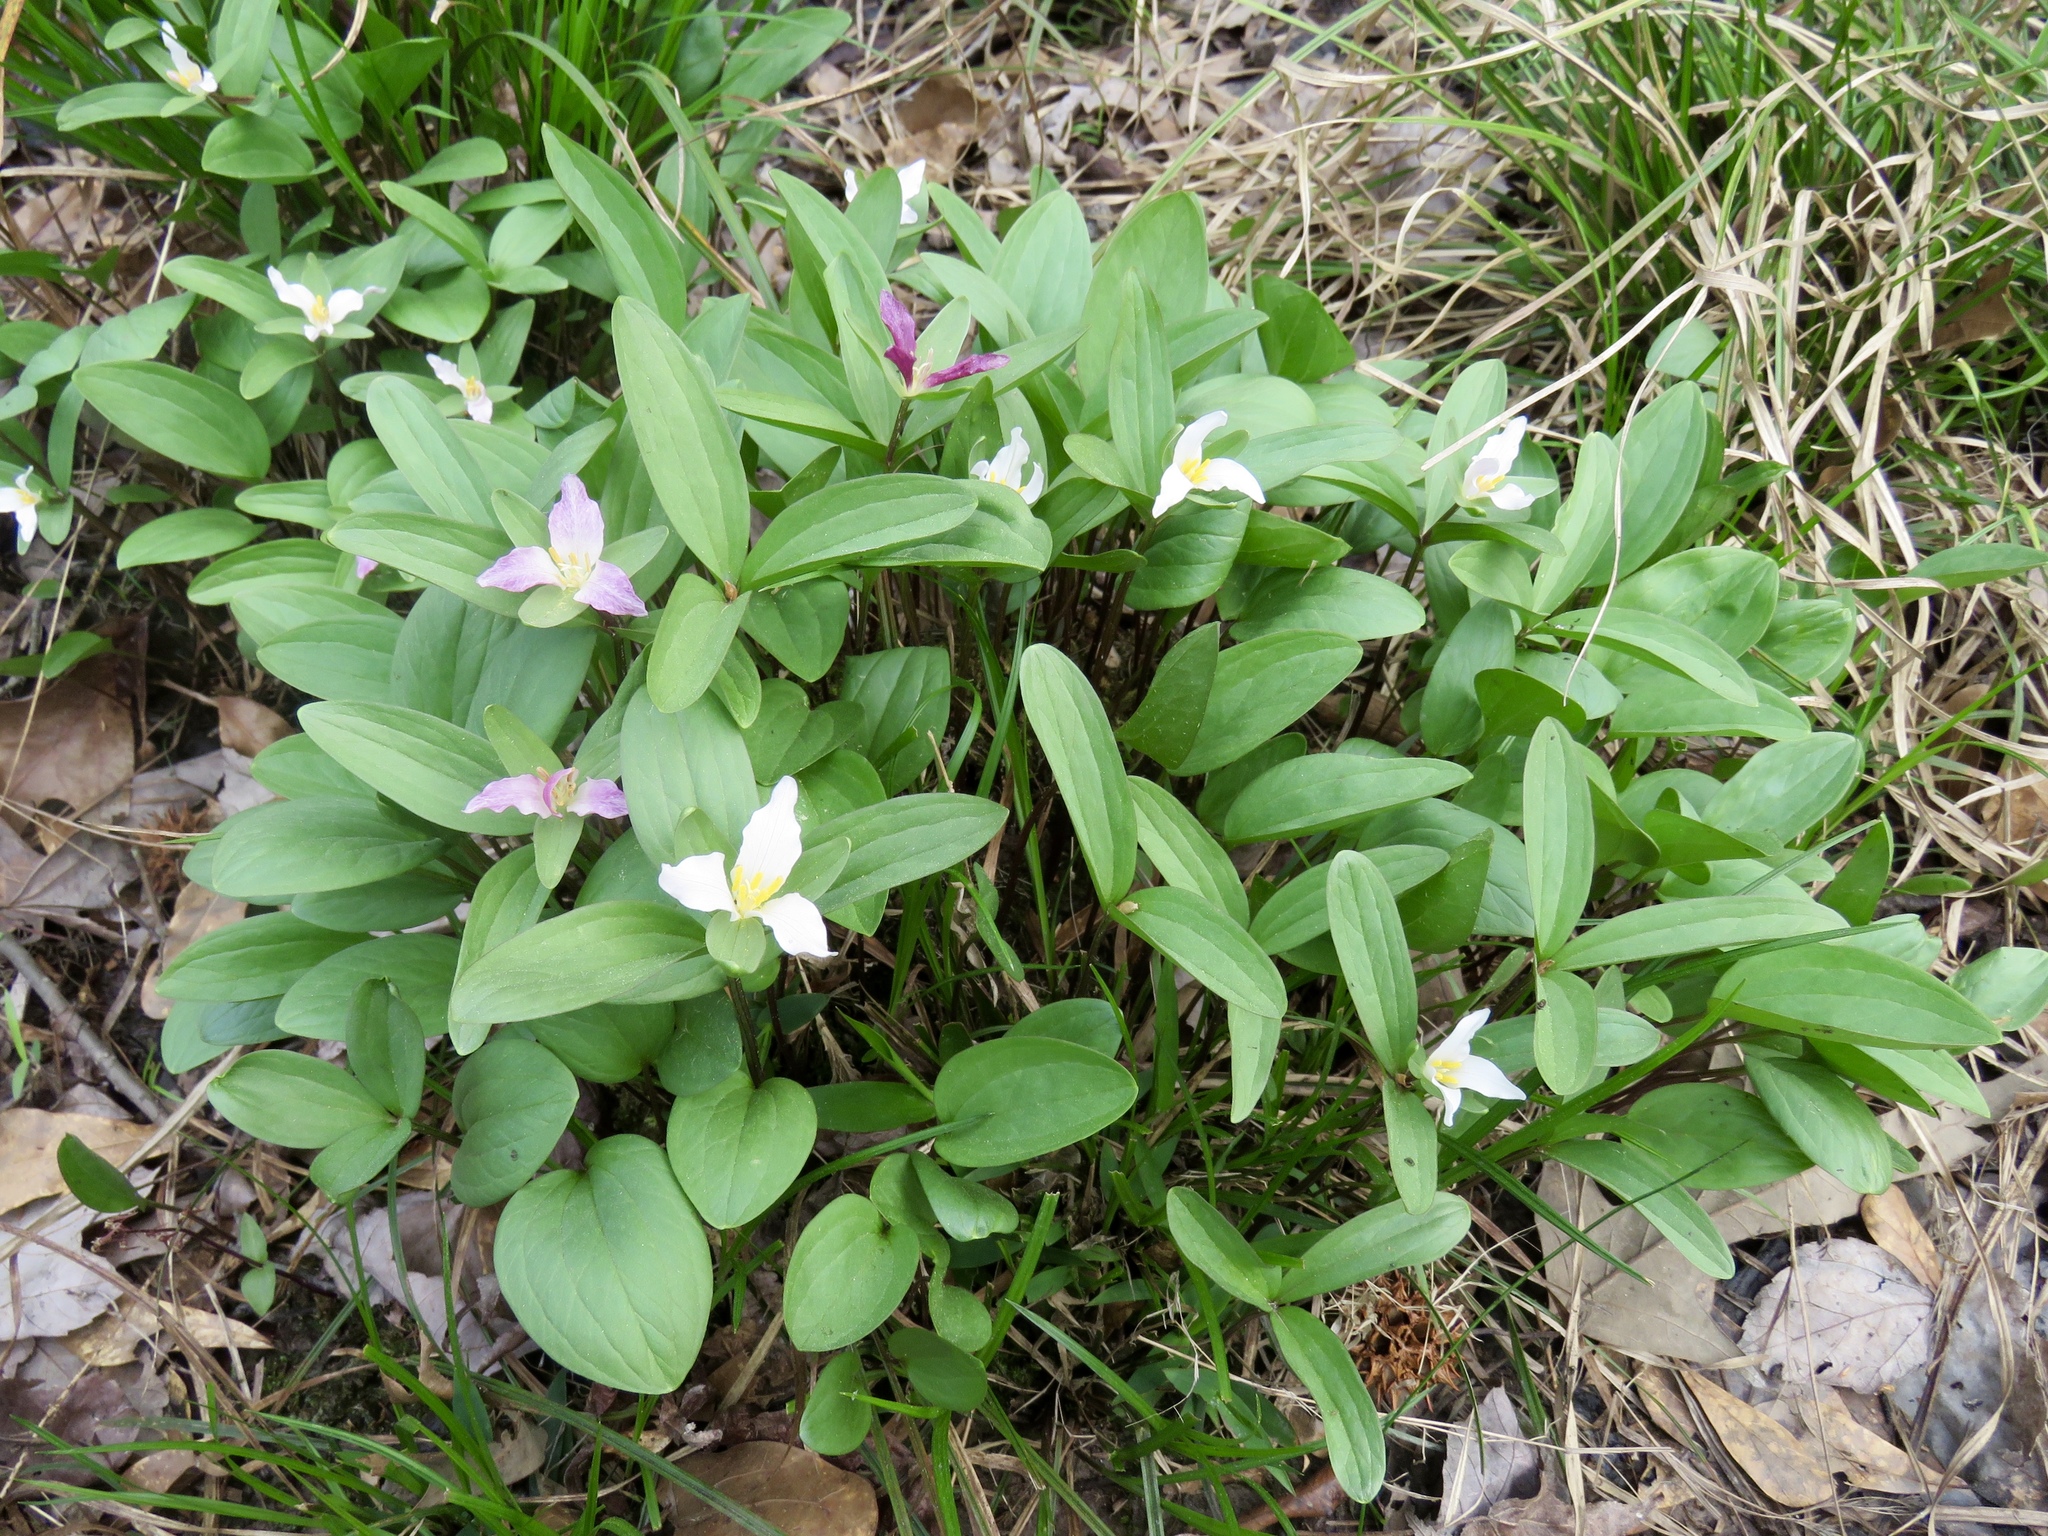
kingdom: Plantae
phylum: Tracheophyta
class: Liliopsida
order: Liliales
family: Melanthiaceae
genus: Trillium
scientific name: Trillium pusillum
